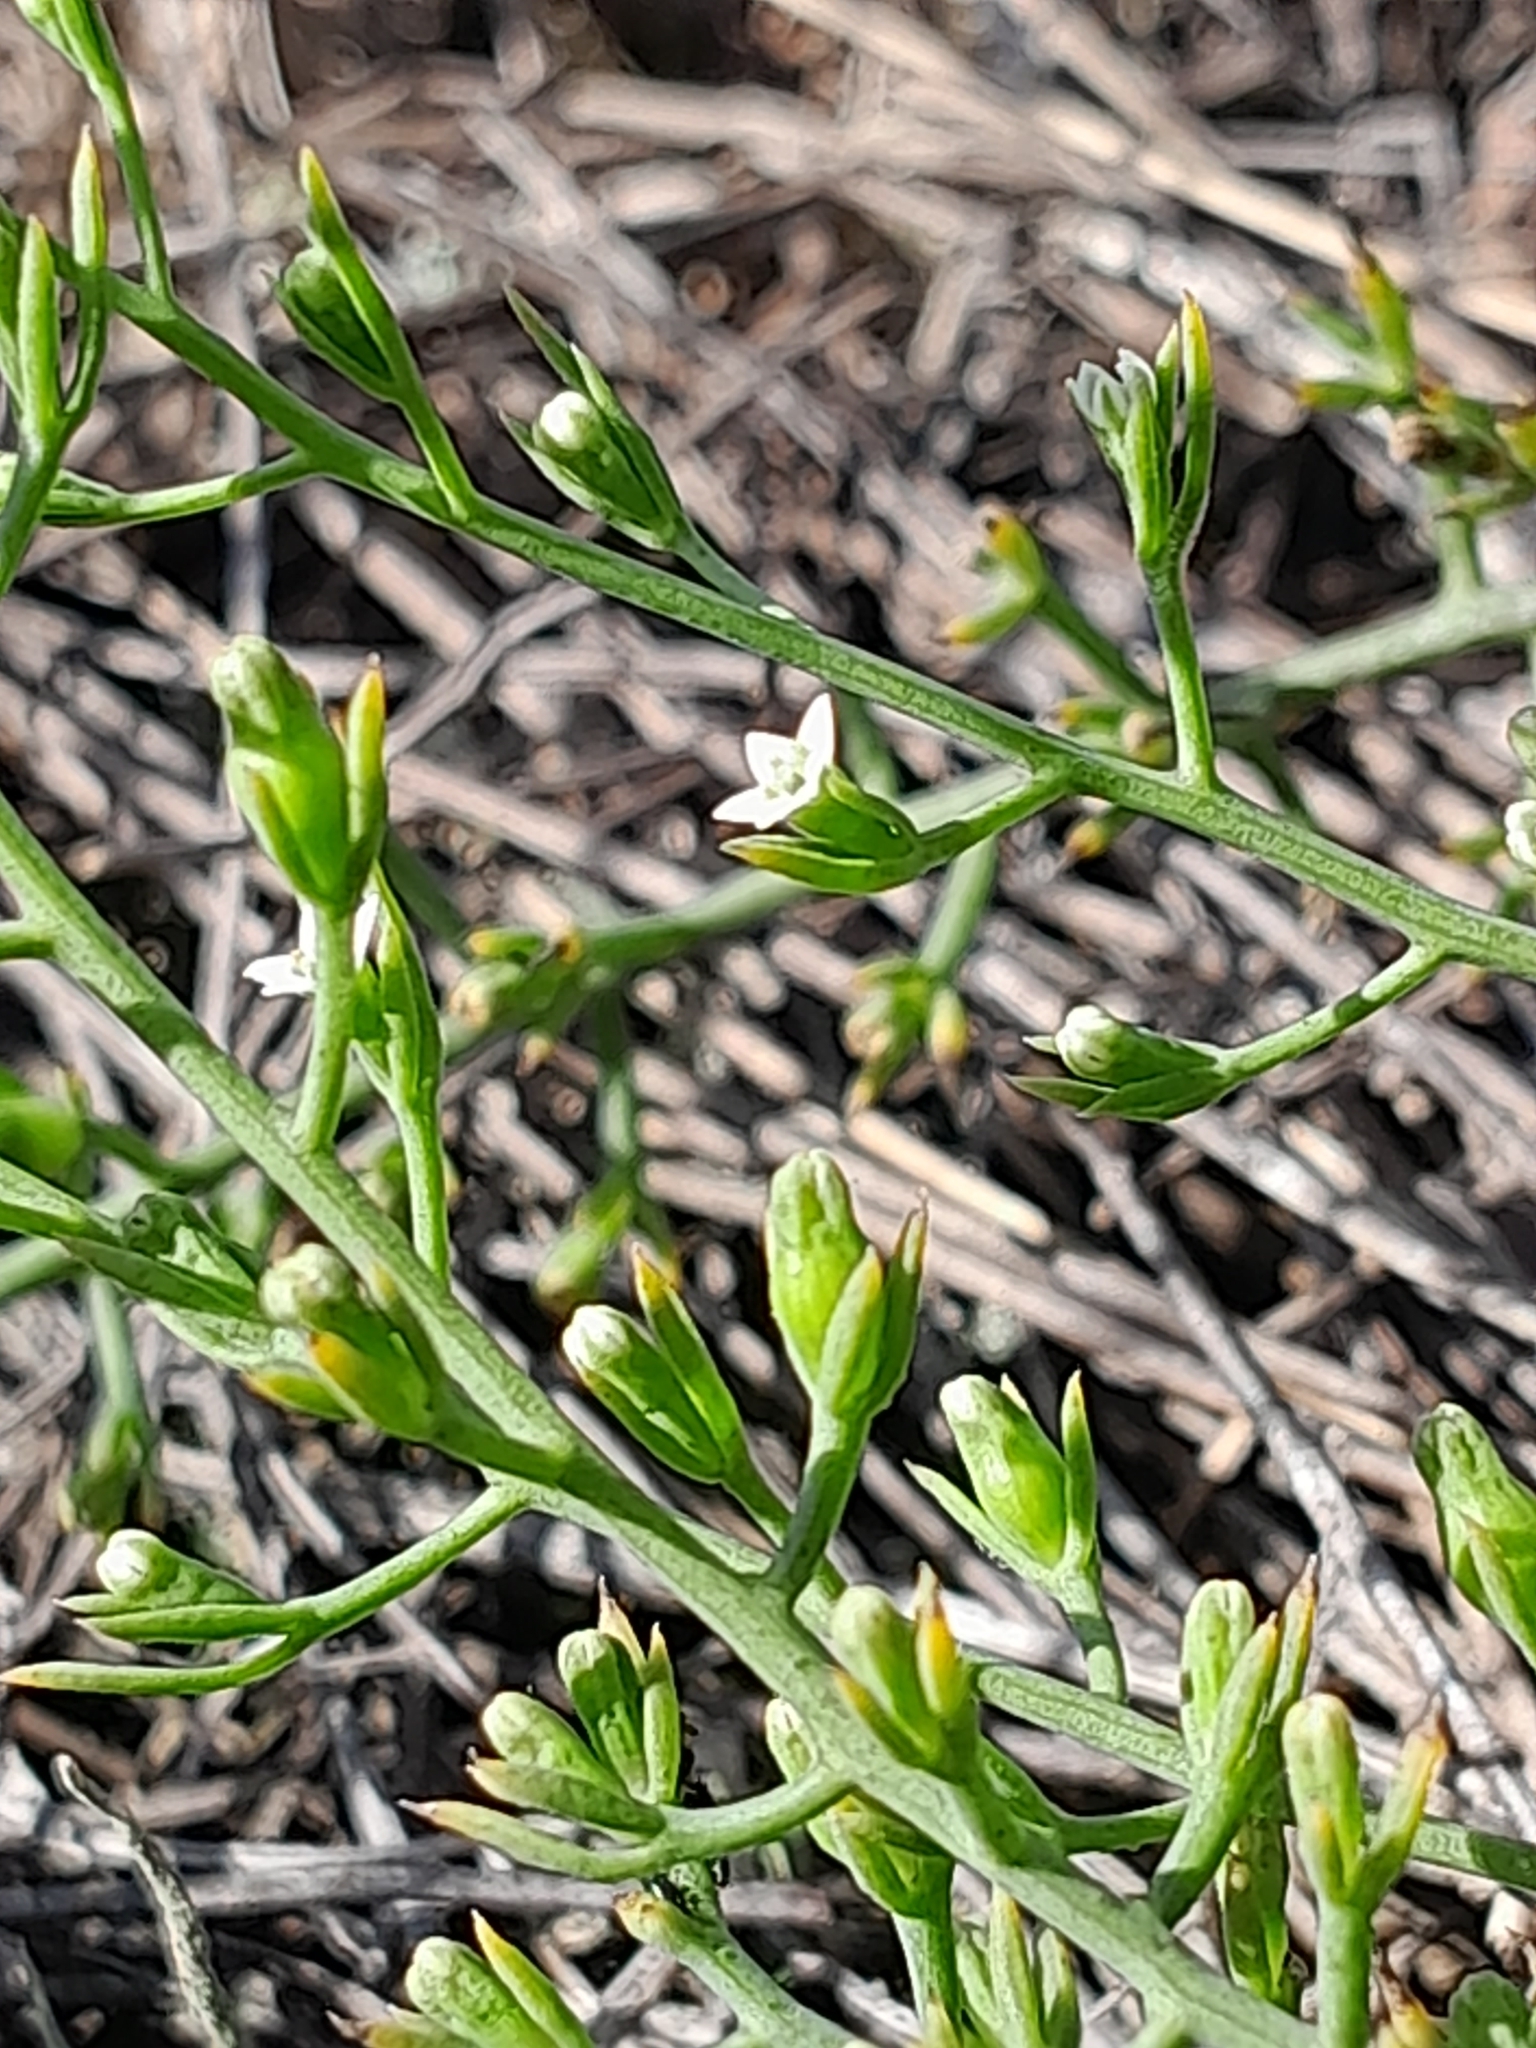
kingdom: Plantae
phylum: Tracheophyta
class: Magnoliopsida
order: Santalales
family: Thesiaceae
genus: Thesium
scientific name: Thesium ramosum
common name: Field thesium
